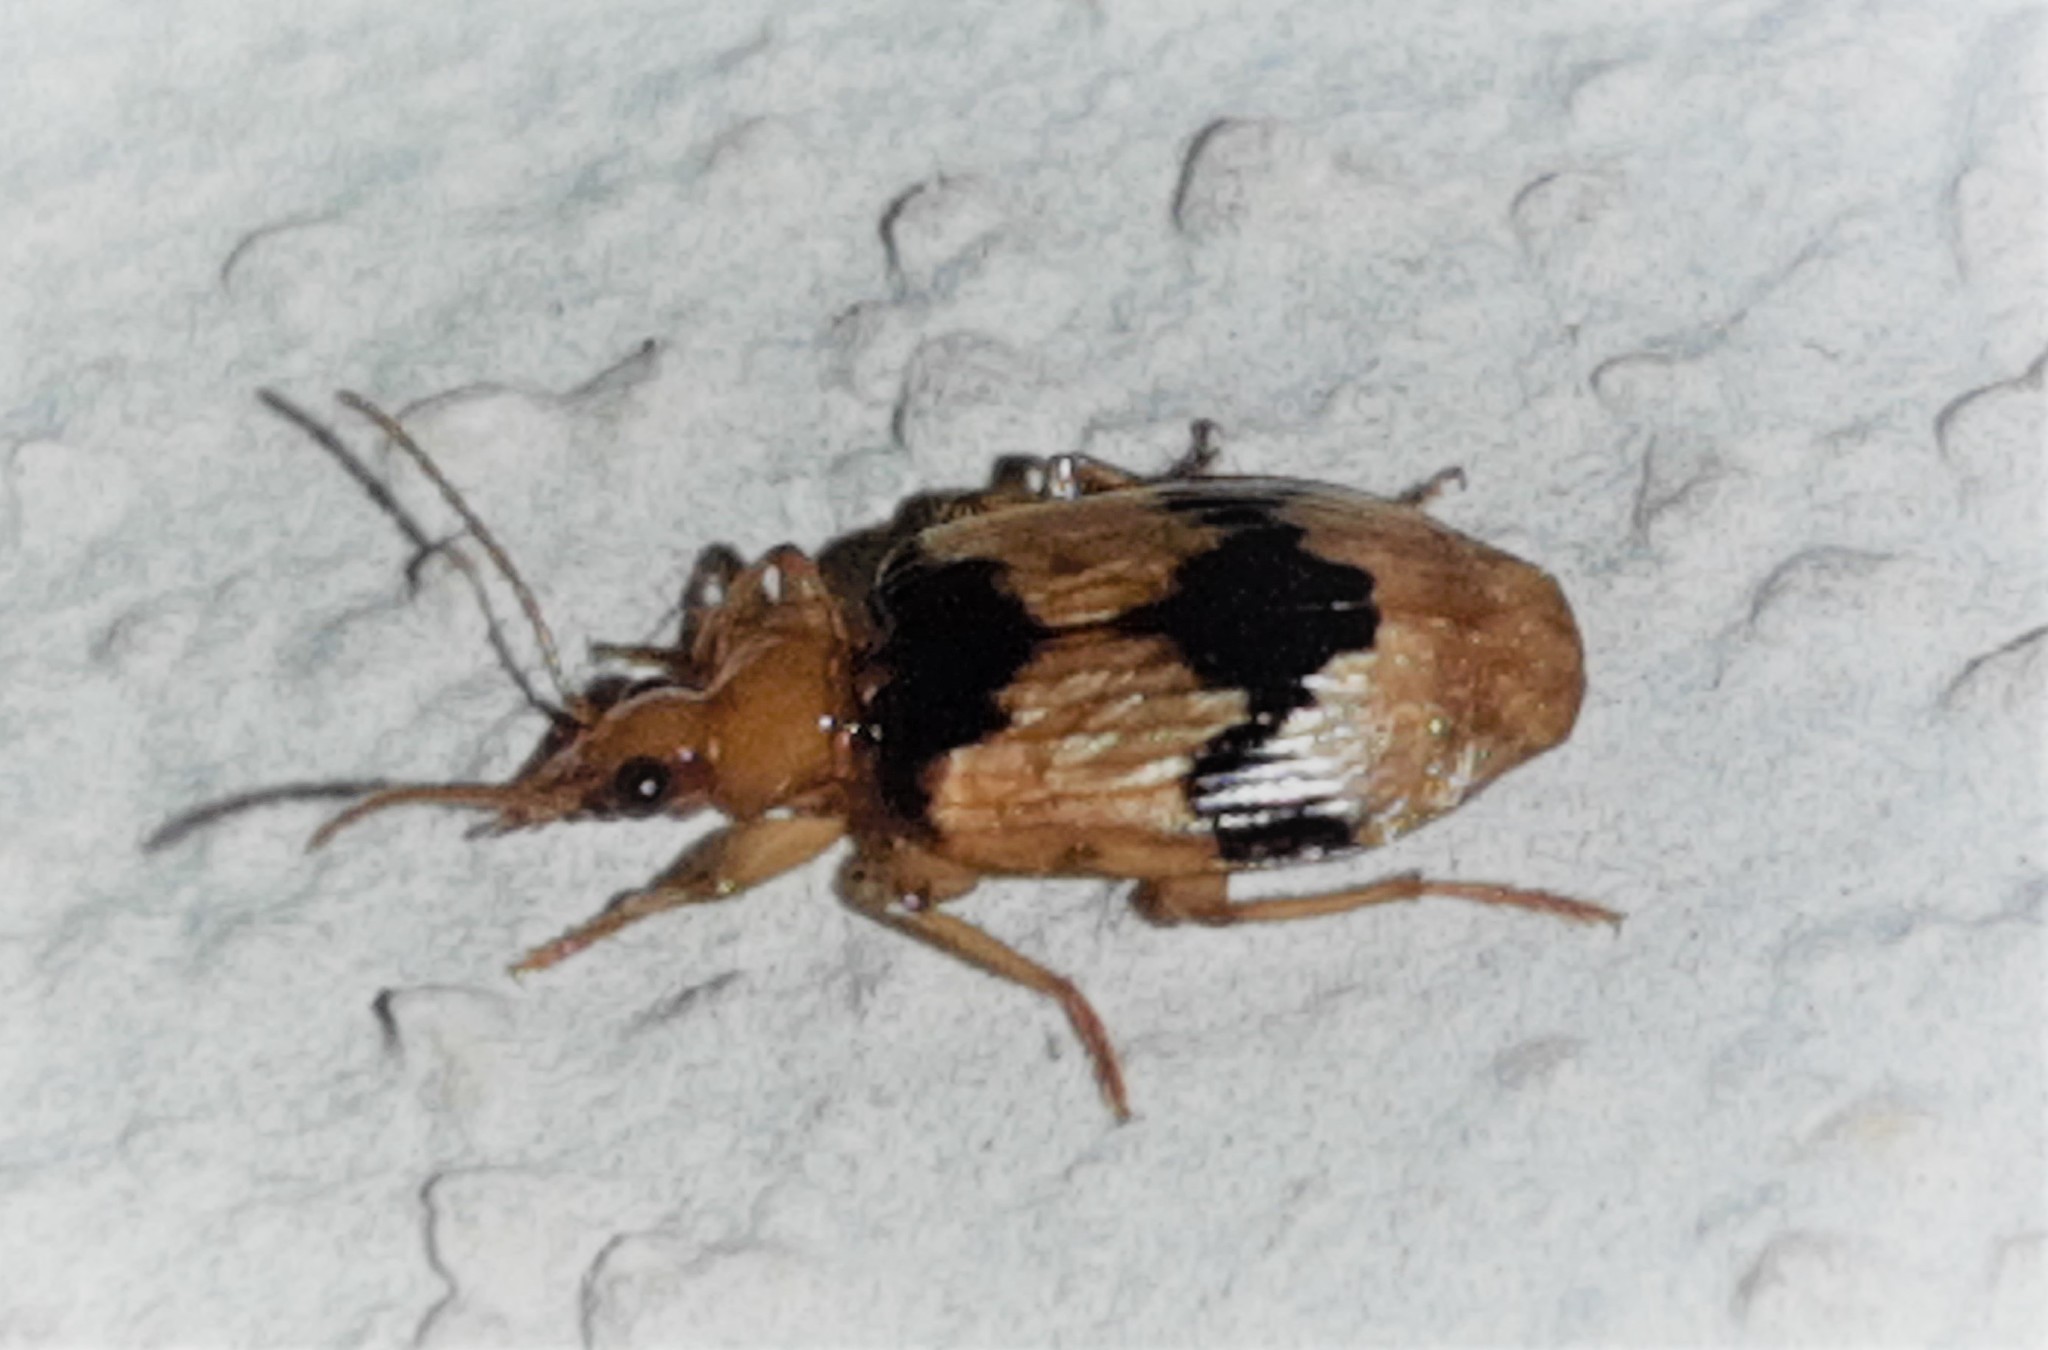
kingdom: Animalia
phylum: Arthropoda
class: Insecta
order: Coleoptera
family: Carabidae
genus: Lebia
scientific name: Lebia
